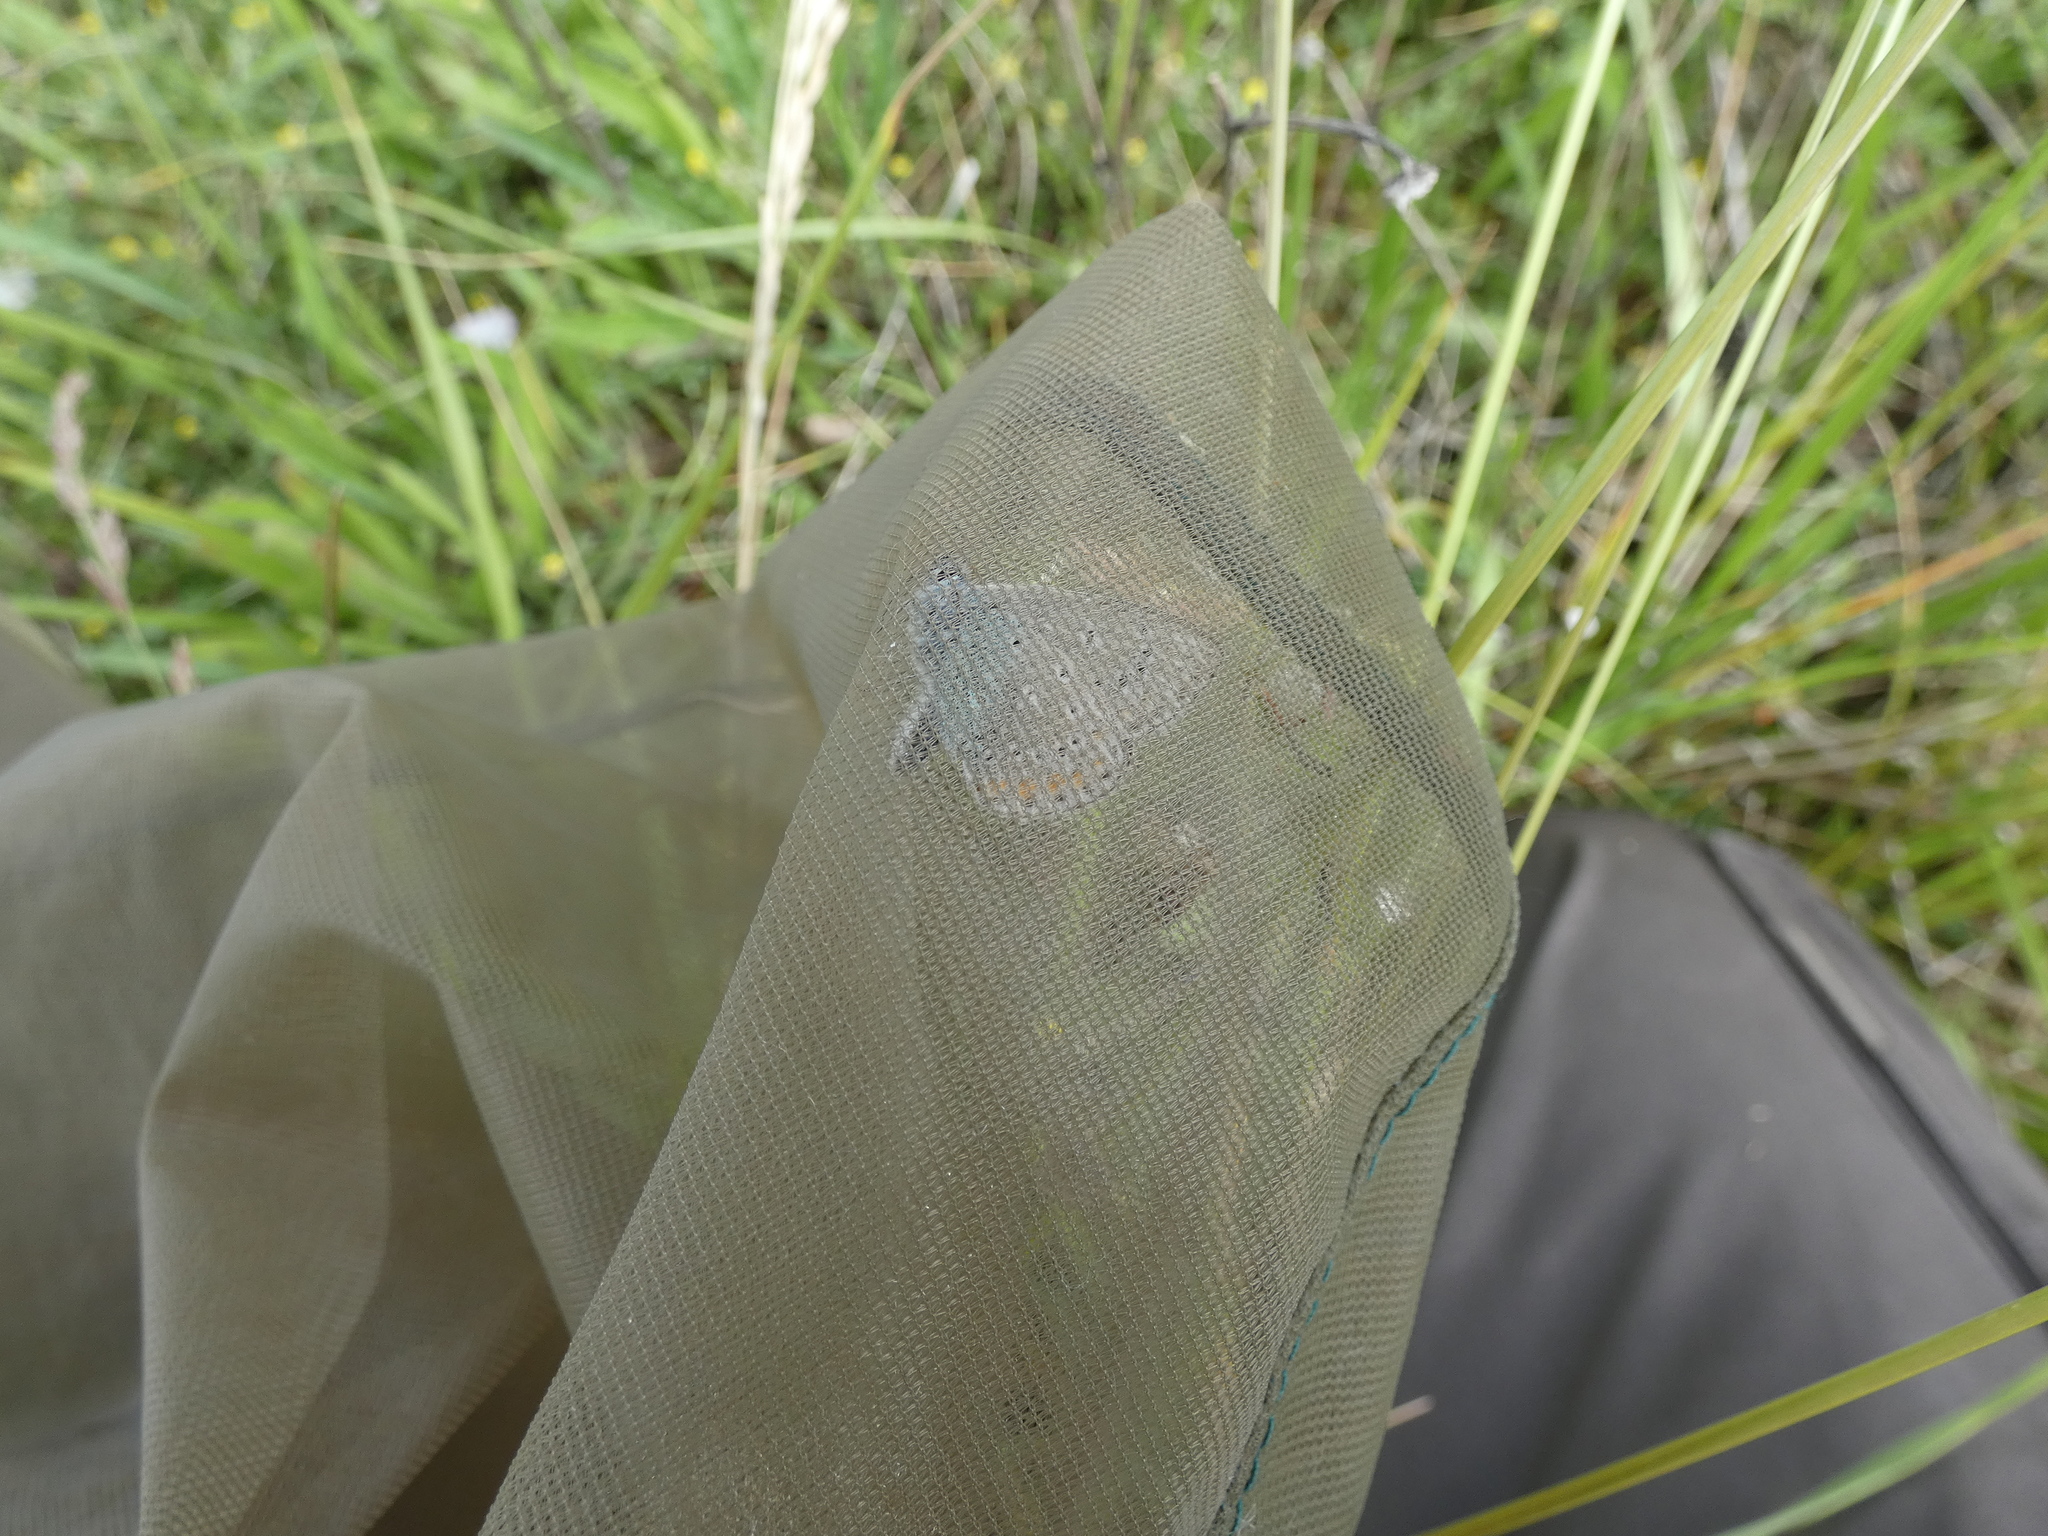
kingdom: Animalia
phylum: Arthropoda
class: Insecta
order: Lepidoptera
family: Lycaenidae
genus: Polyommatus
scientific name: Polyommatus icarus
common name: Common blue
